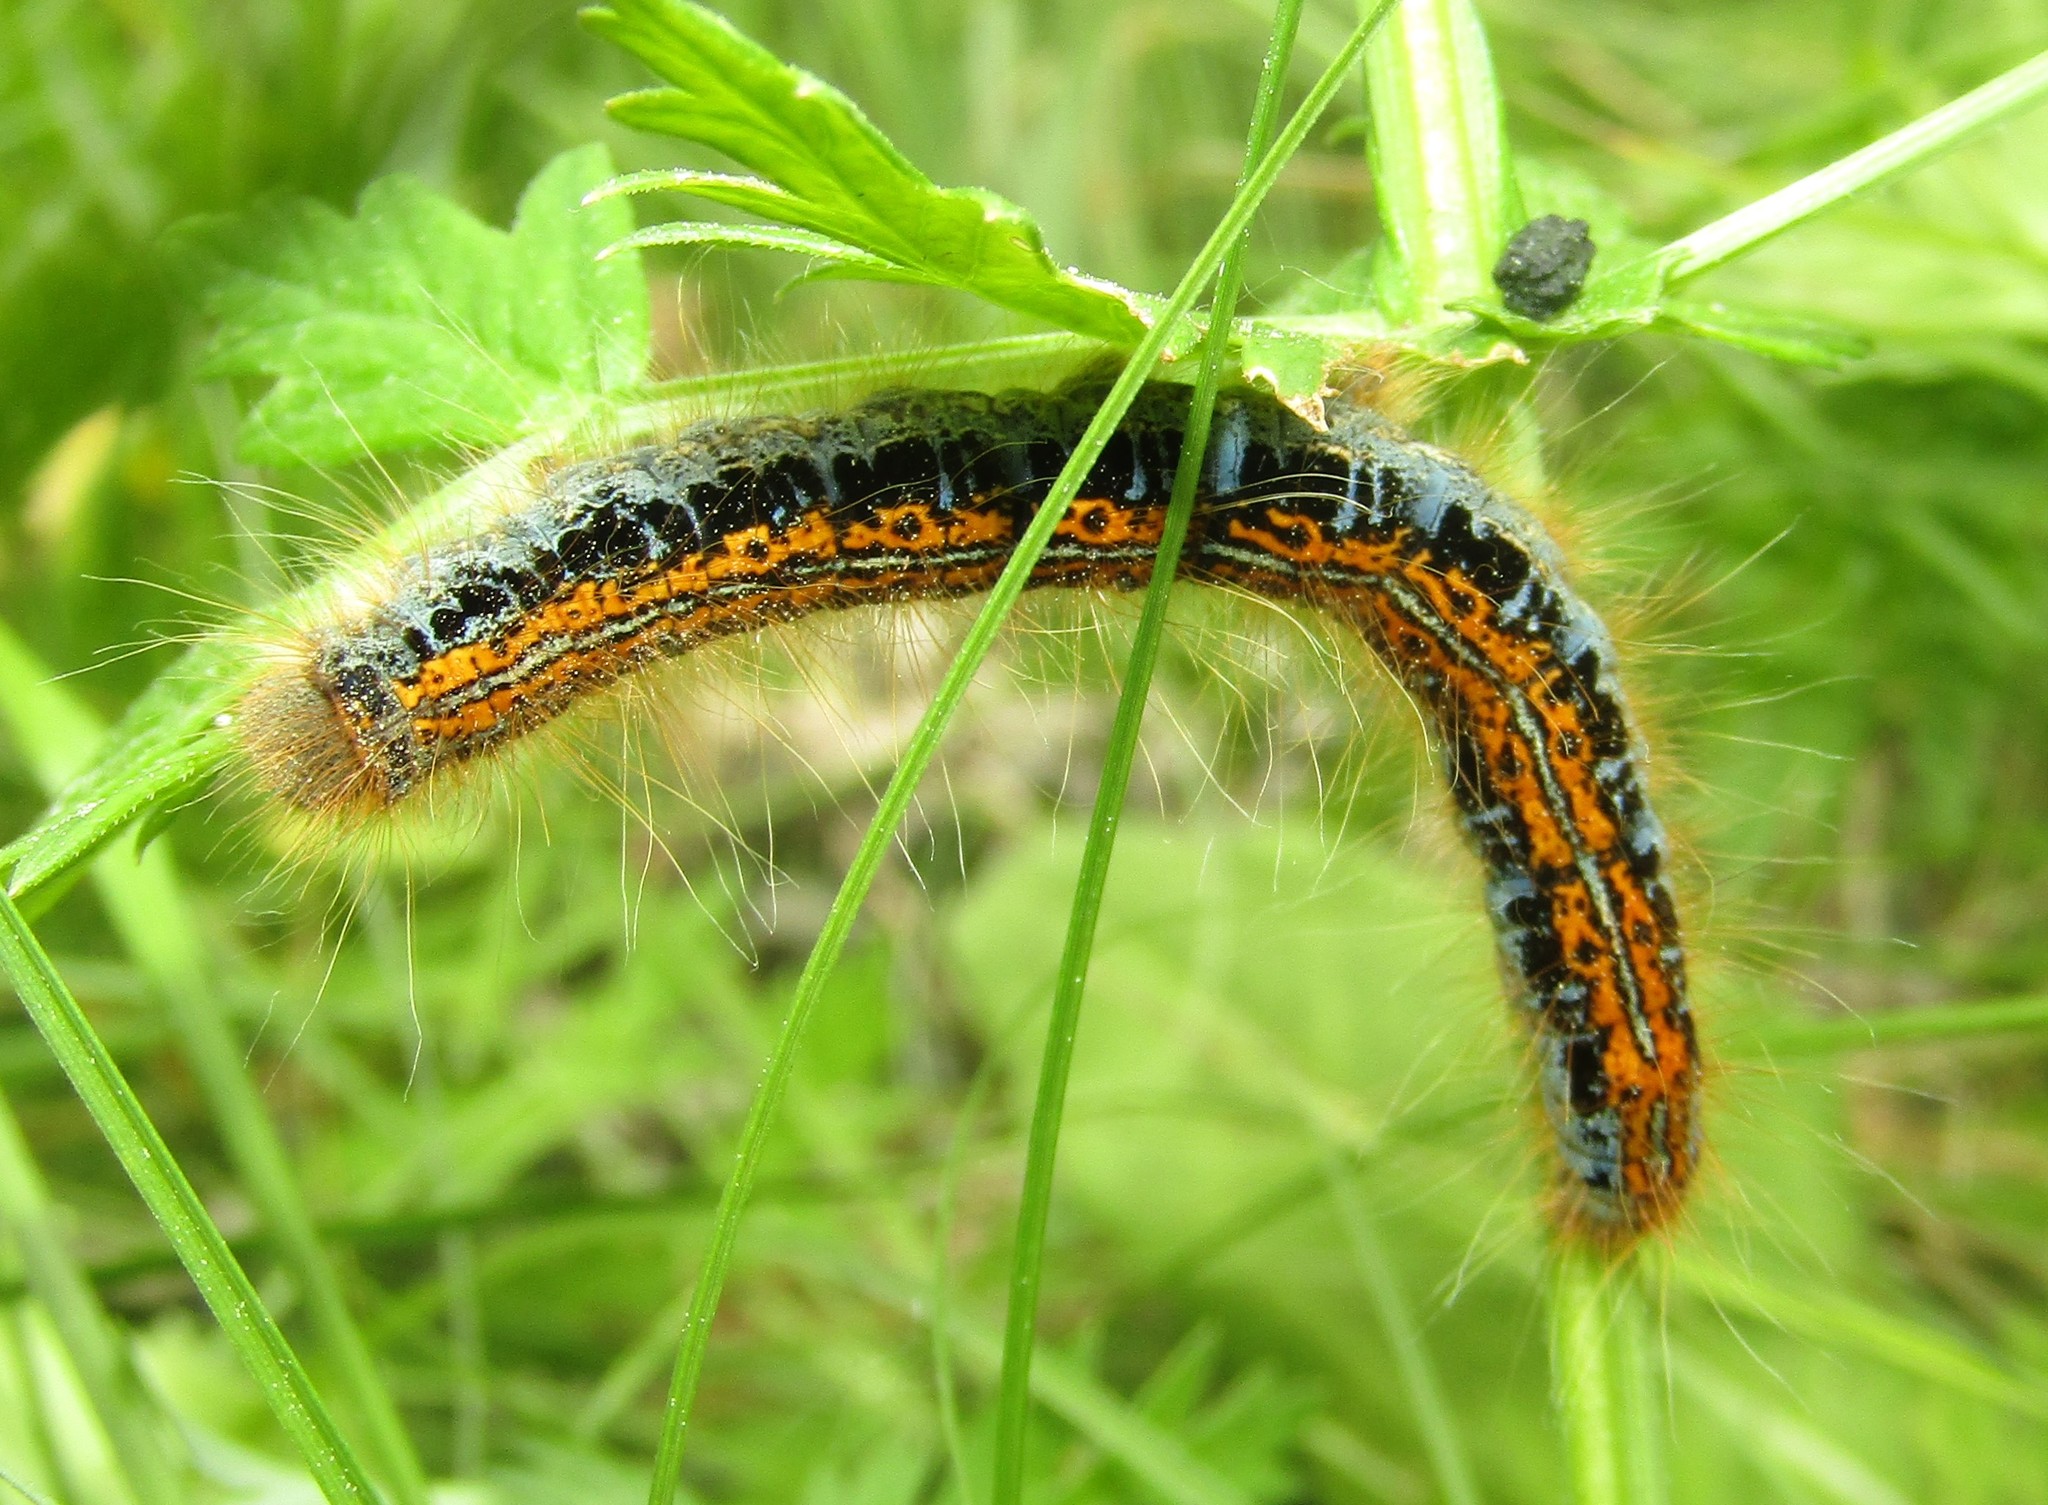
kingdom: Animalia
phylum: Arthropoda
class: Insecta
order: Lepidoptera
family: Lasiocampidae
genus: Malacosoma
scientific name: Malacosoma castrense
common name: Ground lackey
